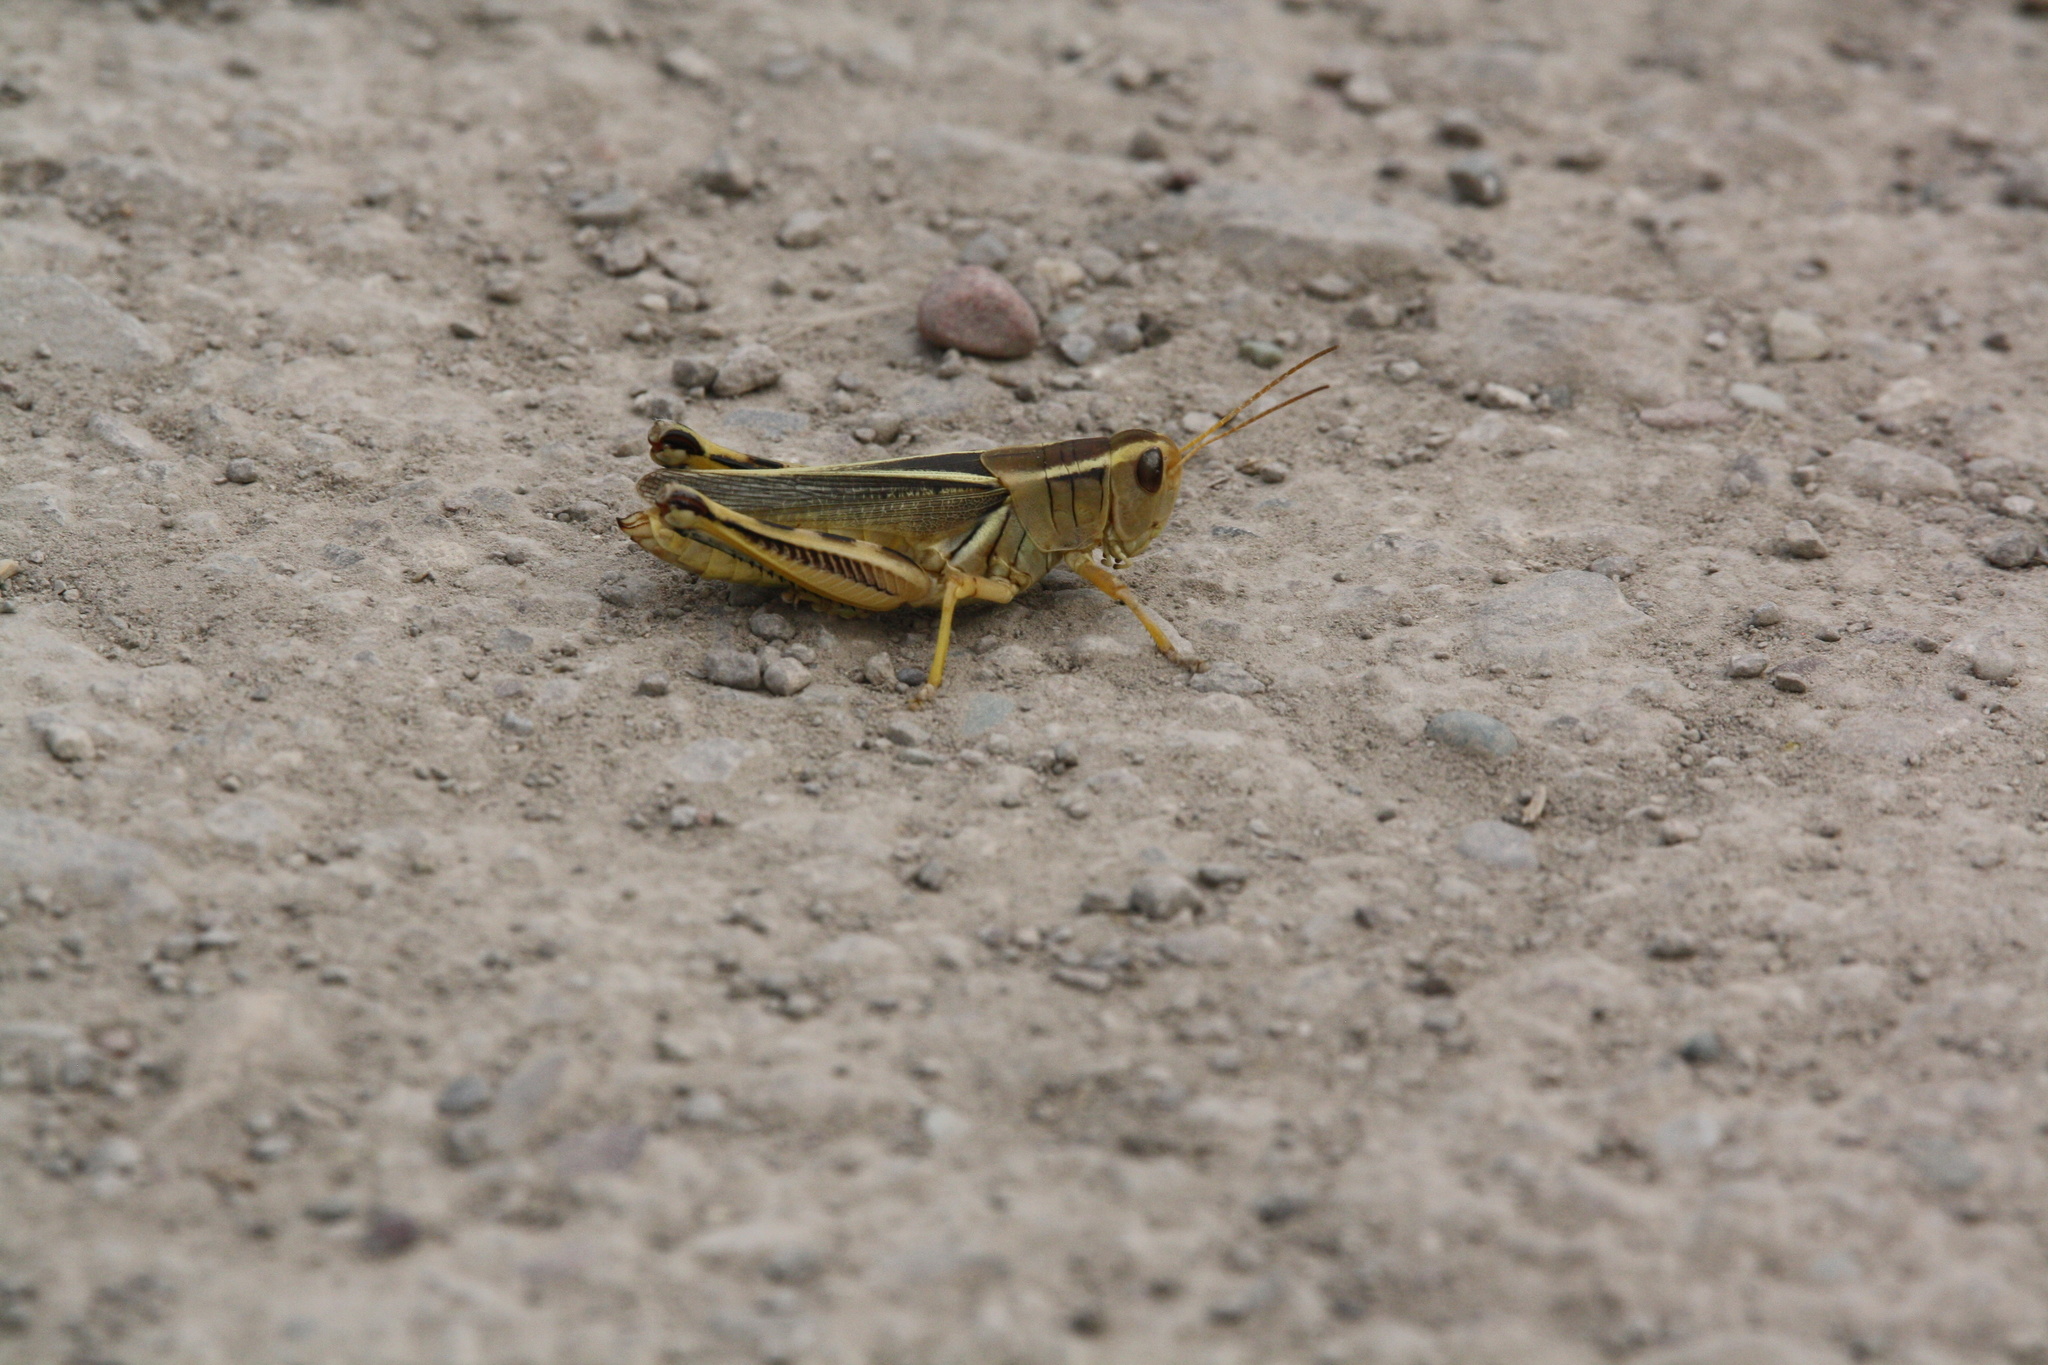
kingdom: Animalia
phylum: Arthropoda
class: Insecta
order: Orthoptera
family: Acrididae
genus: Melanoplus
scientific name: Melanoplus bivittatus
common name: Two-striped grasshopper
